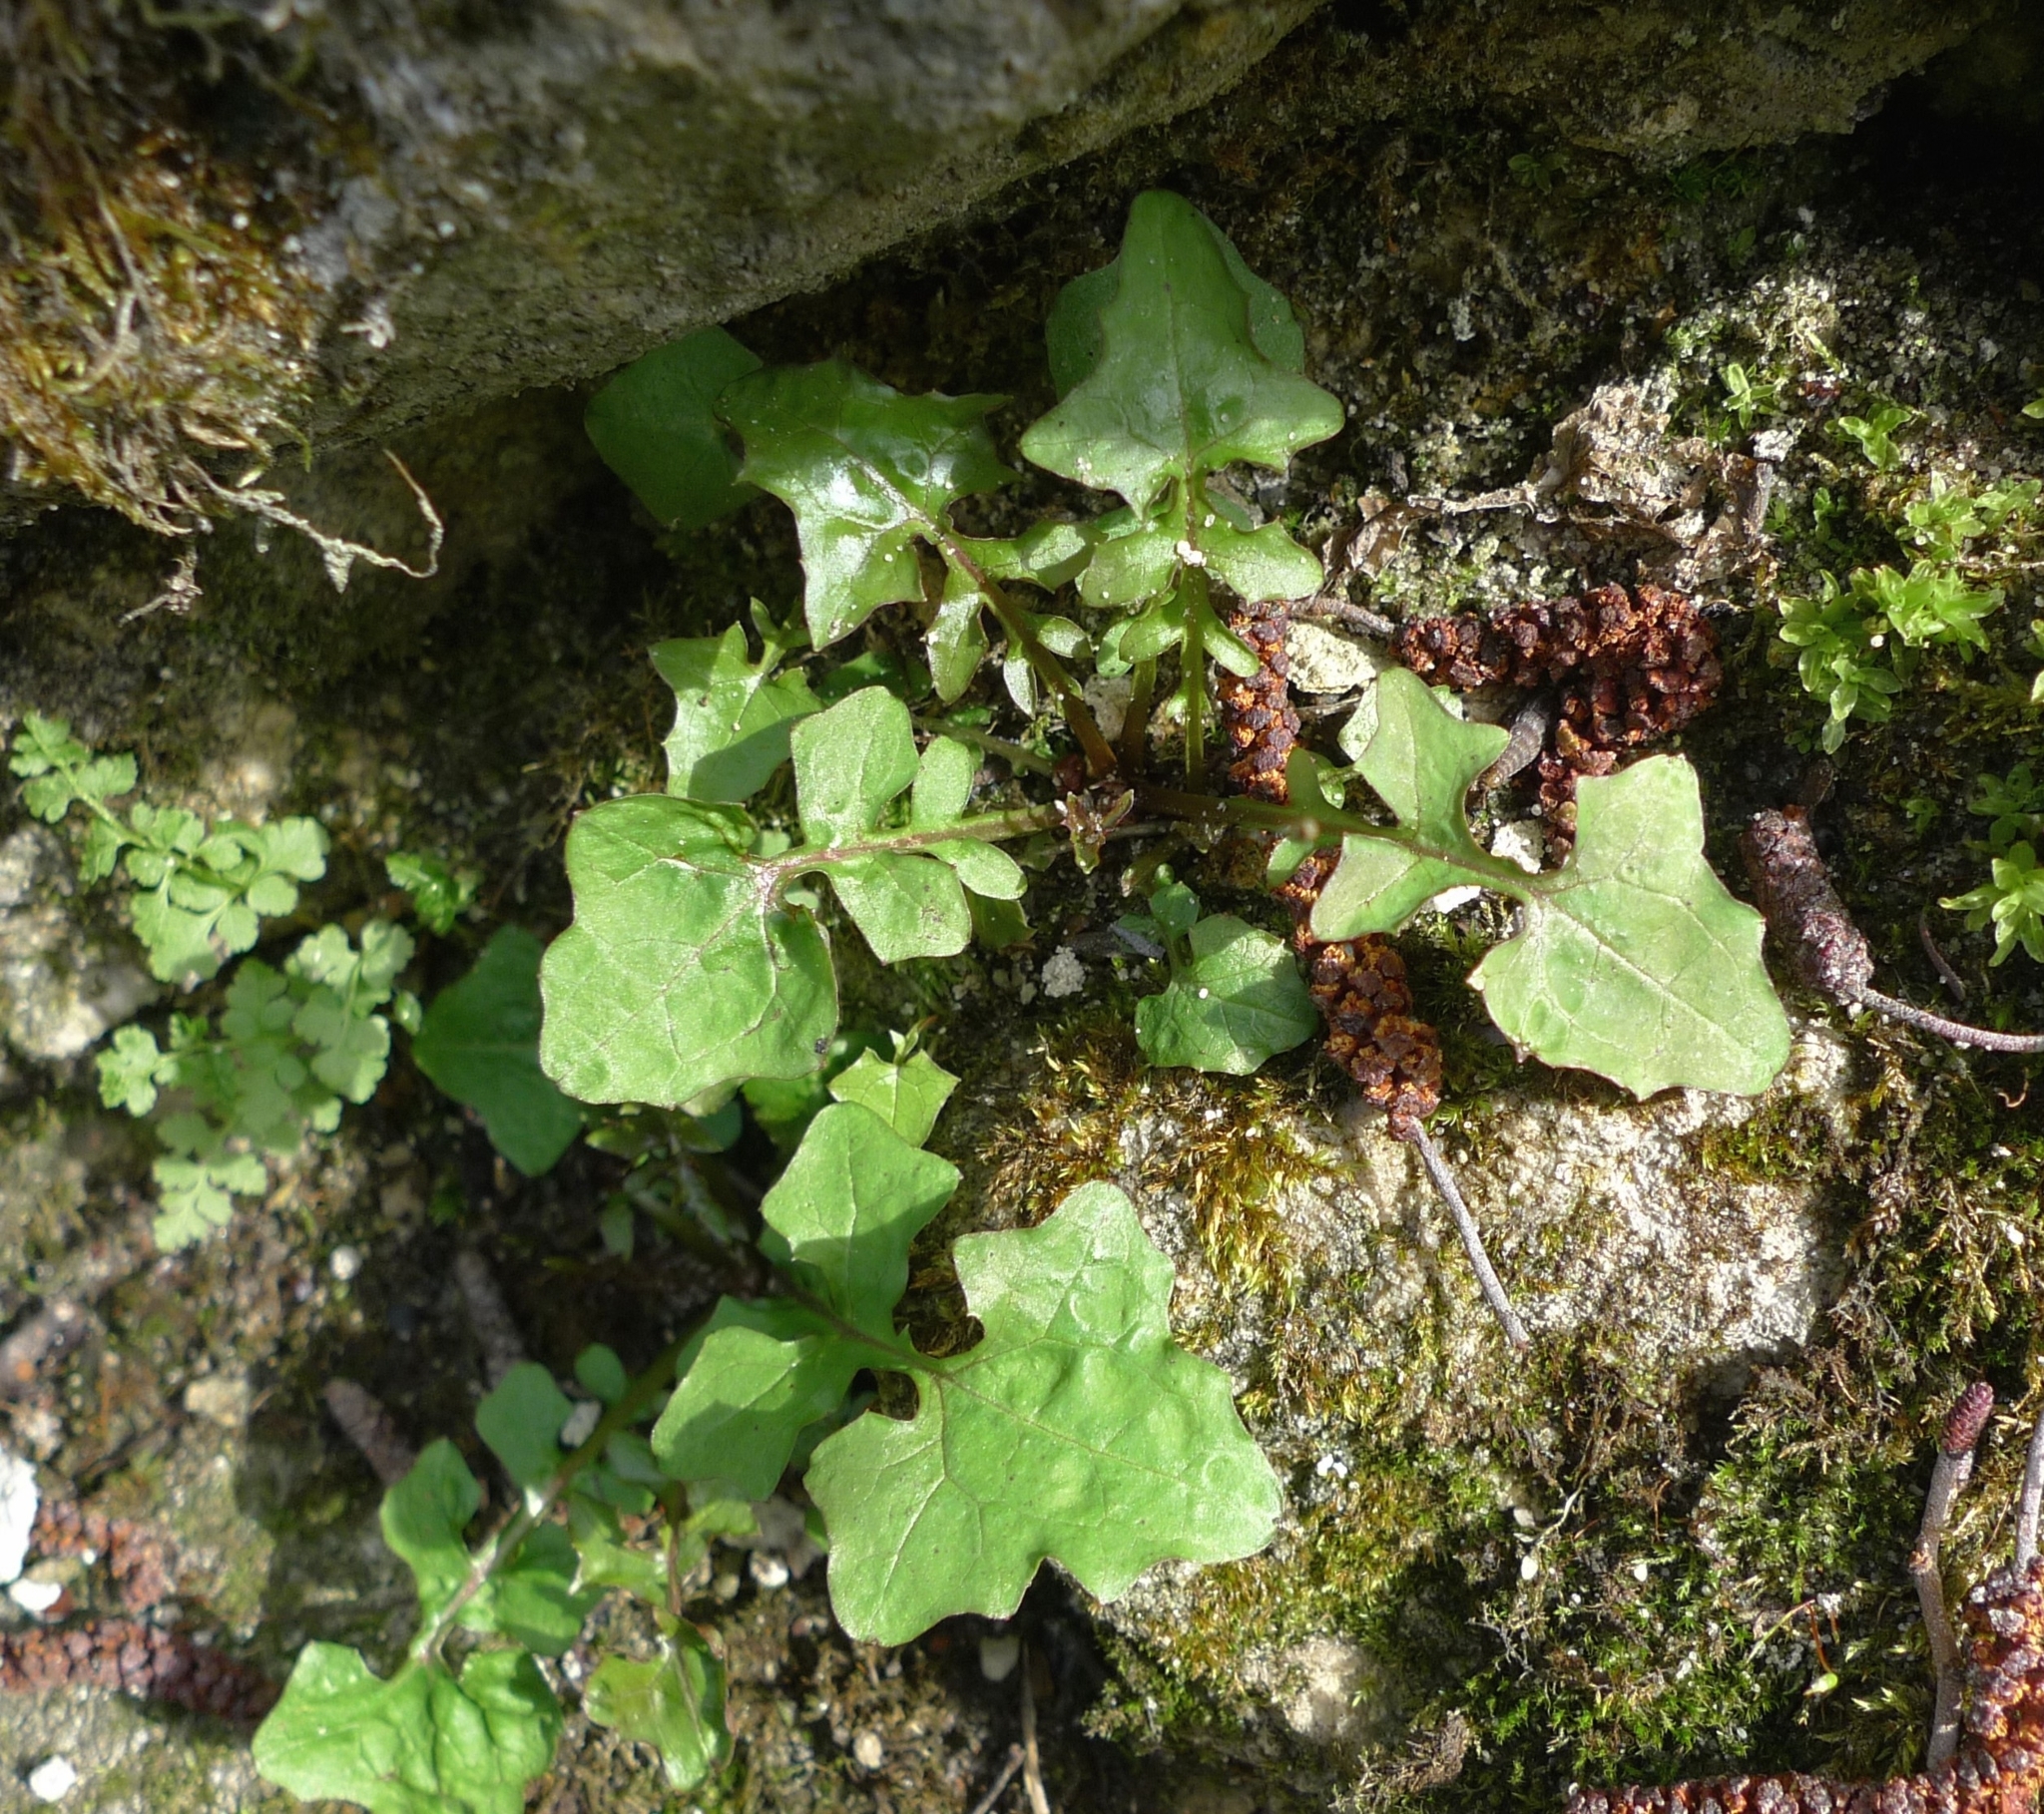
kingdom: Plantae
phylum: Tracheophyta
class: Magnoliopsida
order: Asterales
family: Asteraceae
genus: Mycelis
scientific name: Mycelis muralis
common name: Wall lettuce
